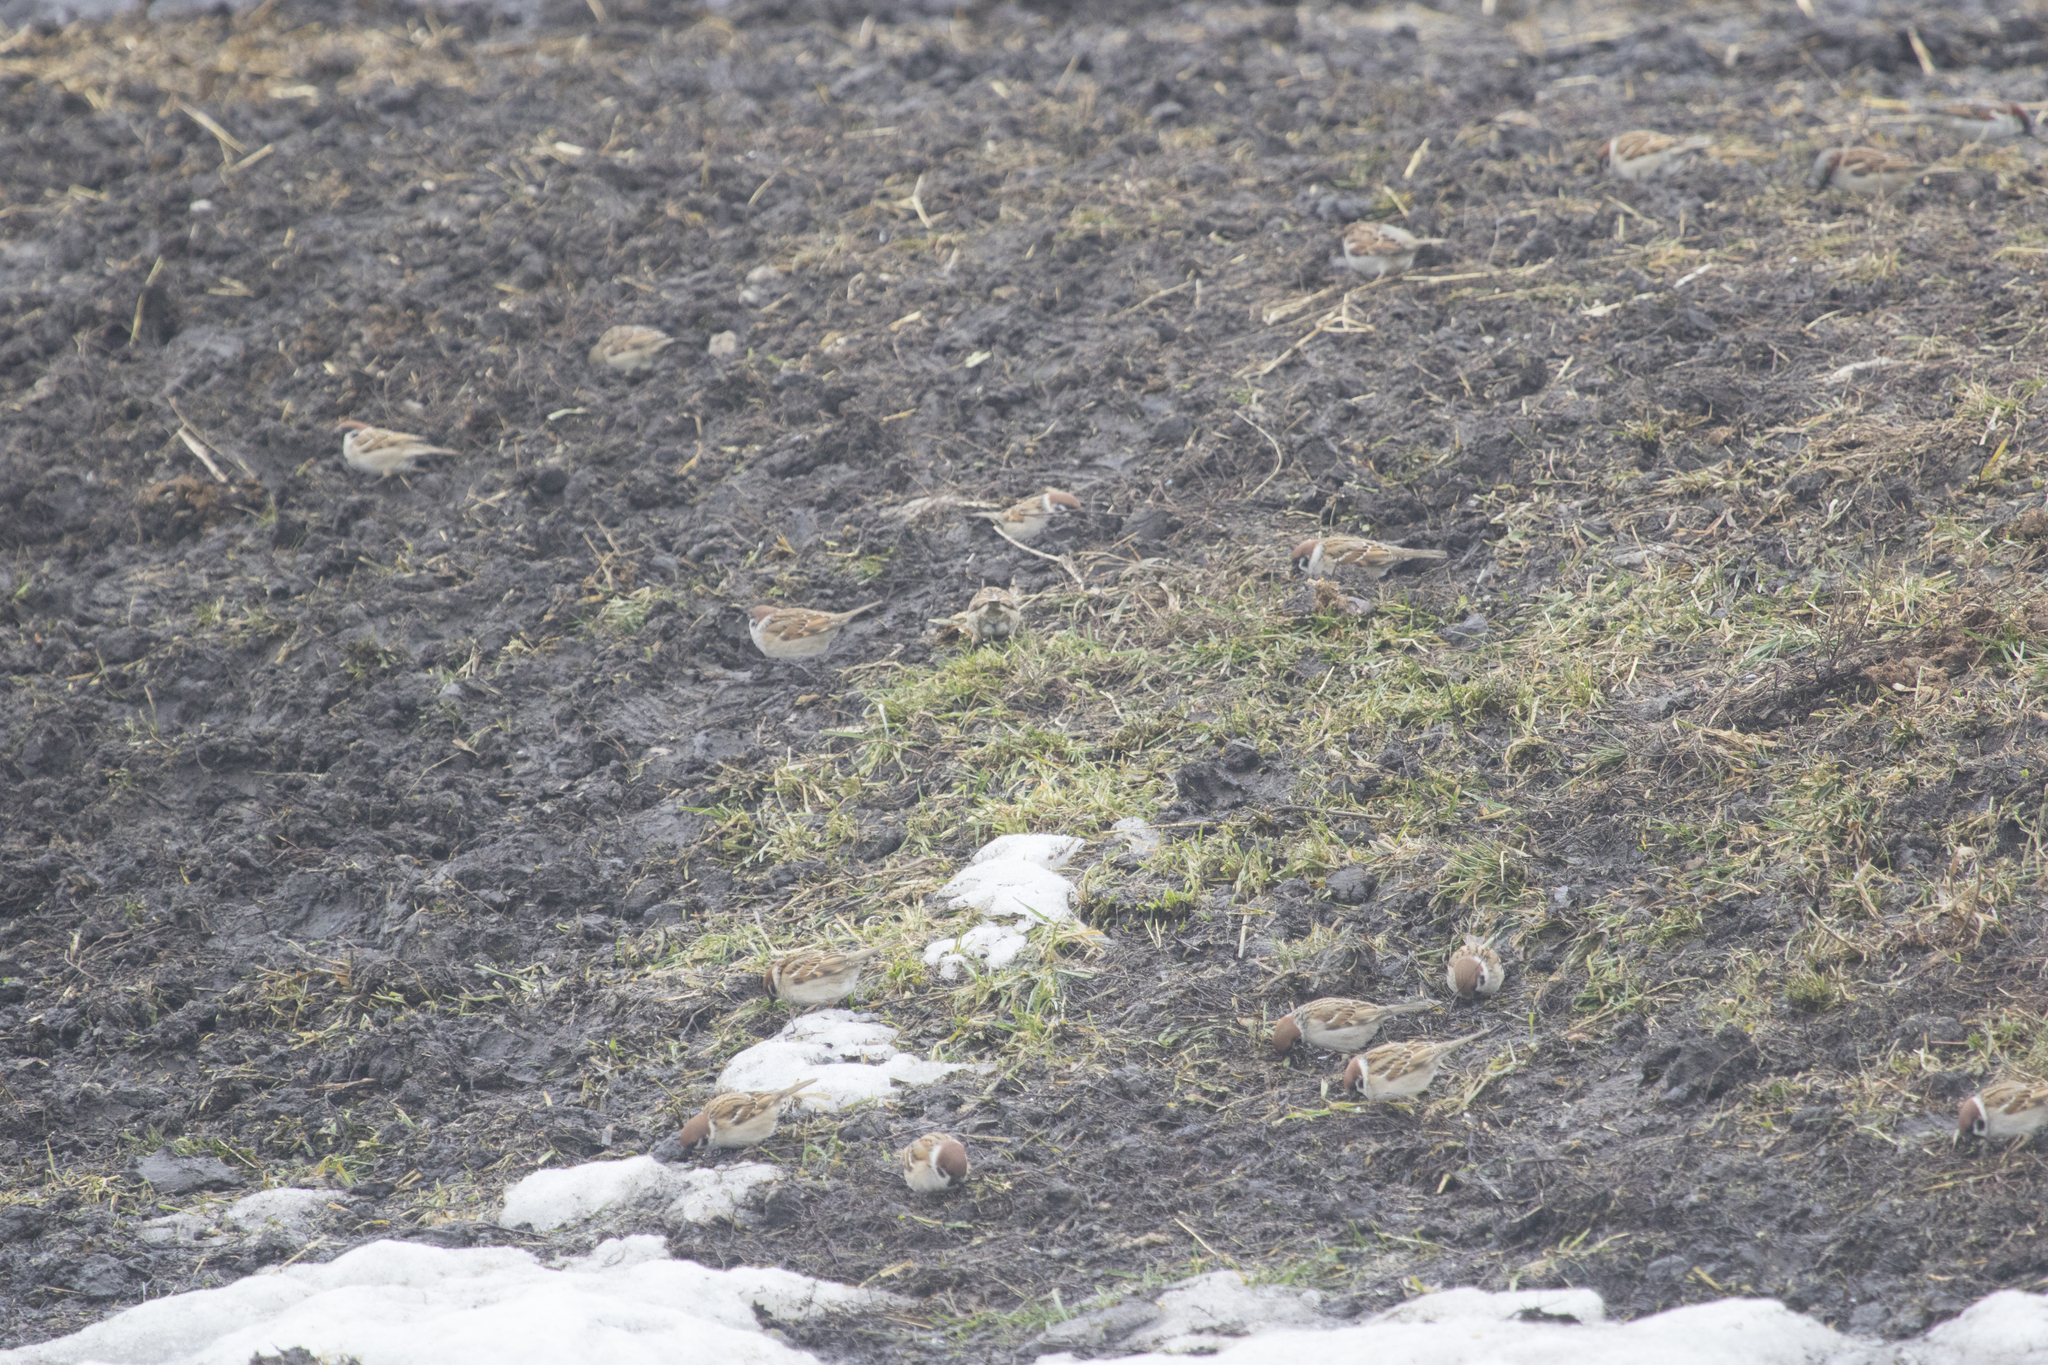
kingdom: Animalia
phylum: Chordata
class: Aves
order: Passeriformes
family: Passeridae
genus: Passer
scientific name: Passer montanus
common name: Eurasian tree sparrow
